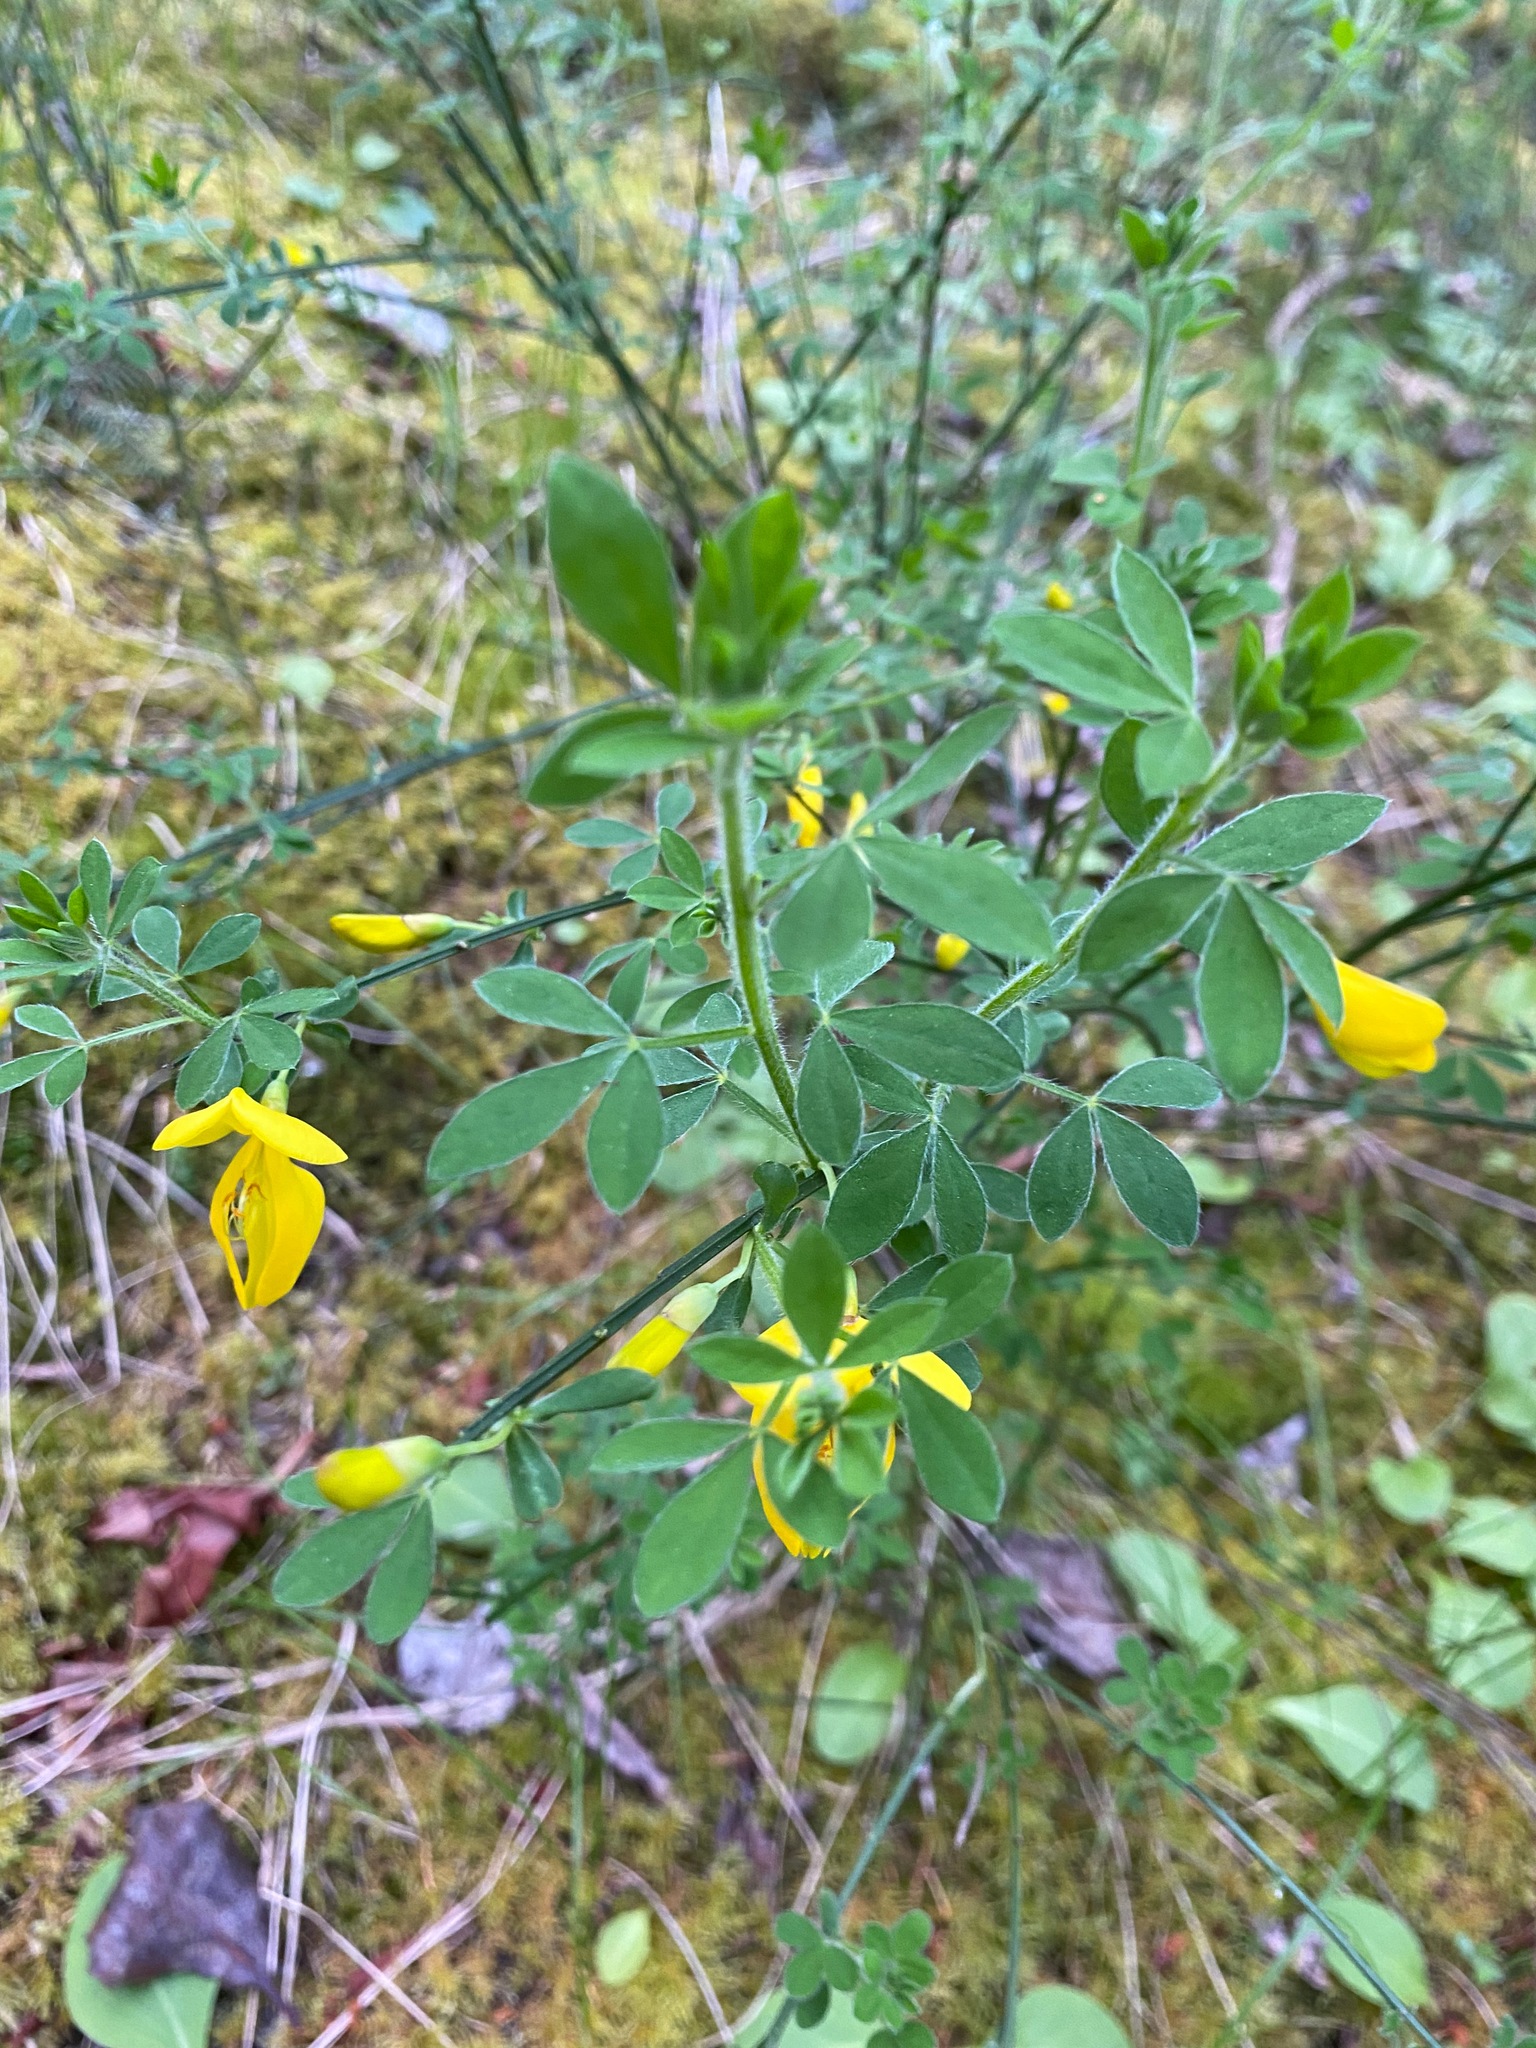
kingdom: Plantae
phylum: Tracheophyta
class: Magnoliopsida
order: Fabales
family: Fabaceae
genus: Cytisus
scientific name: Cytisus scoparius
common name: Scotch broom
